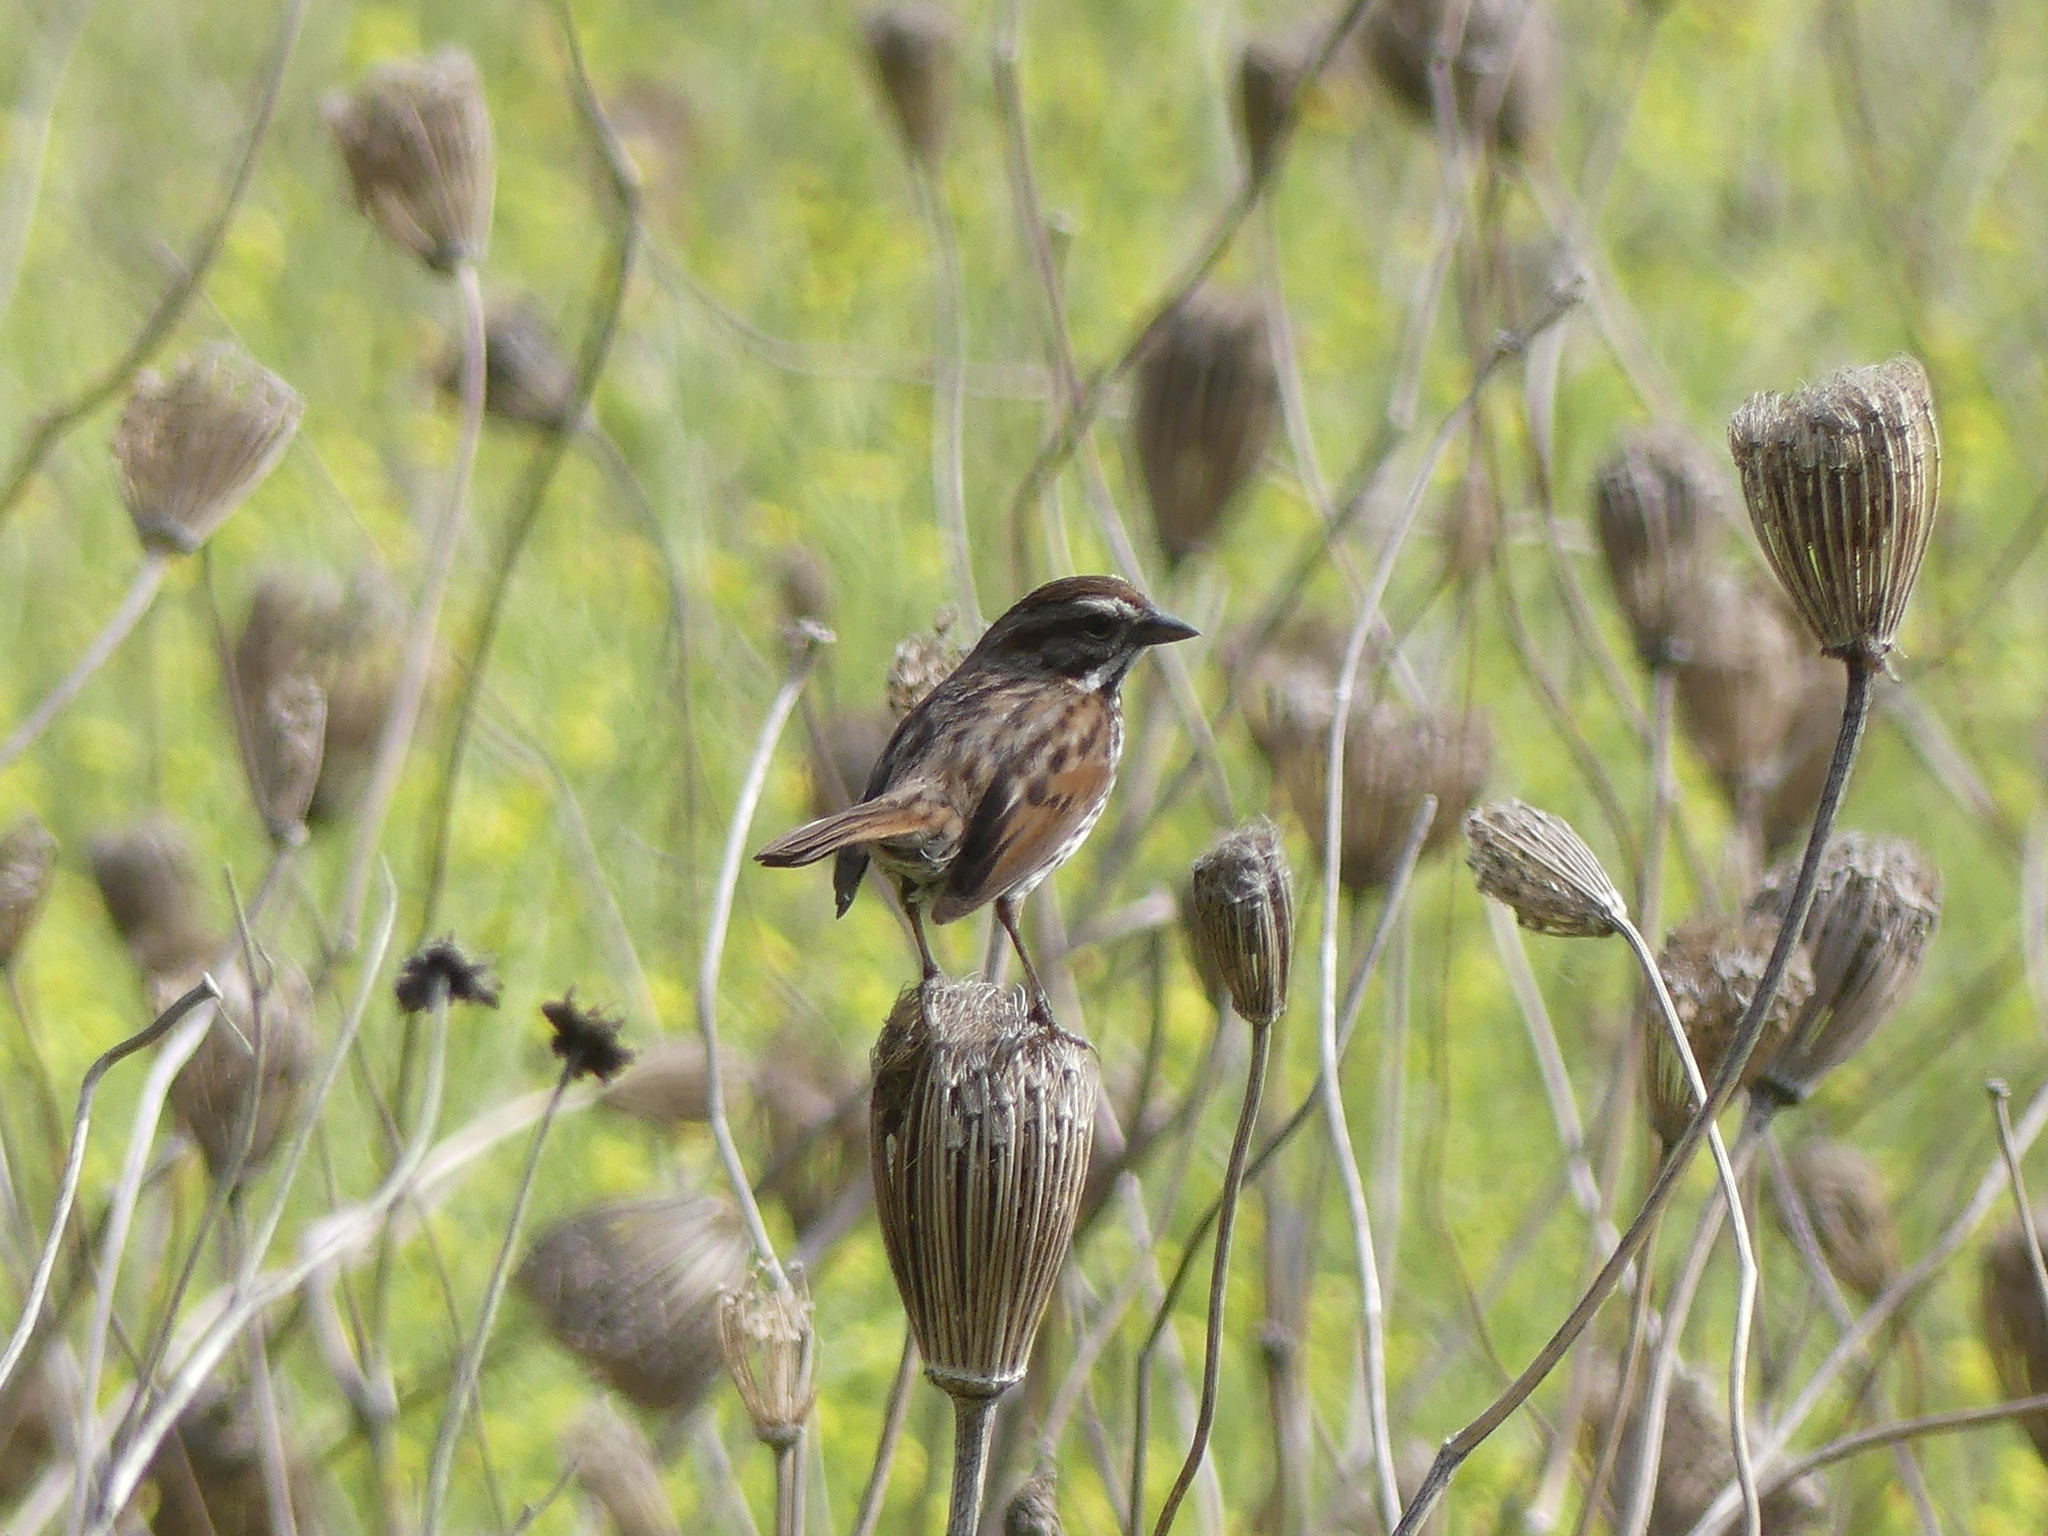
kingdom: Animalia
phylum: Chordata
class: Aves
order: Passeriformes
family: Passerellidae
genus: Melospiza
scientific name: Melospiza melodia
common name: Song sparrow
